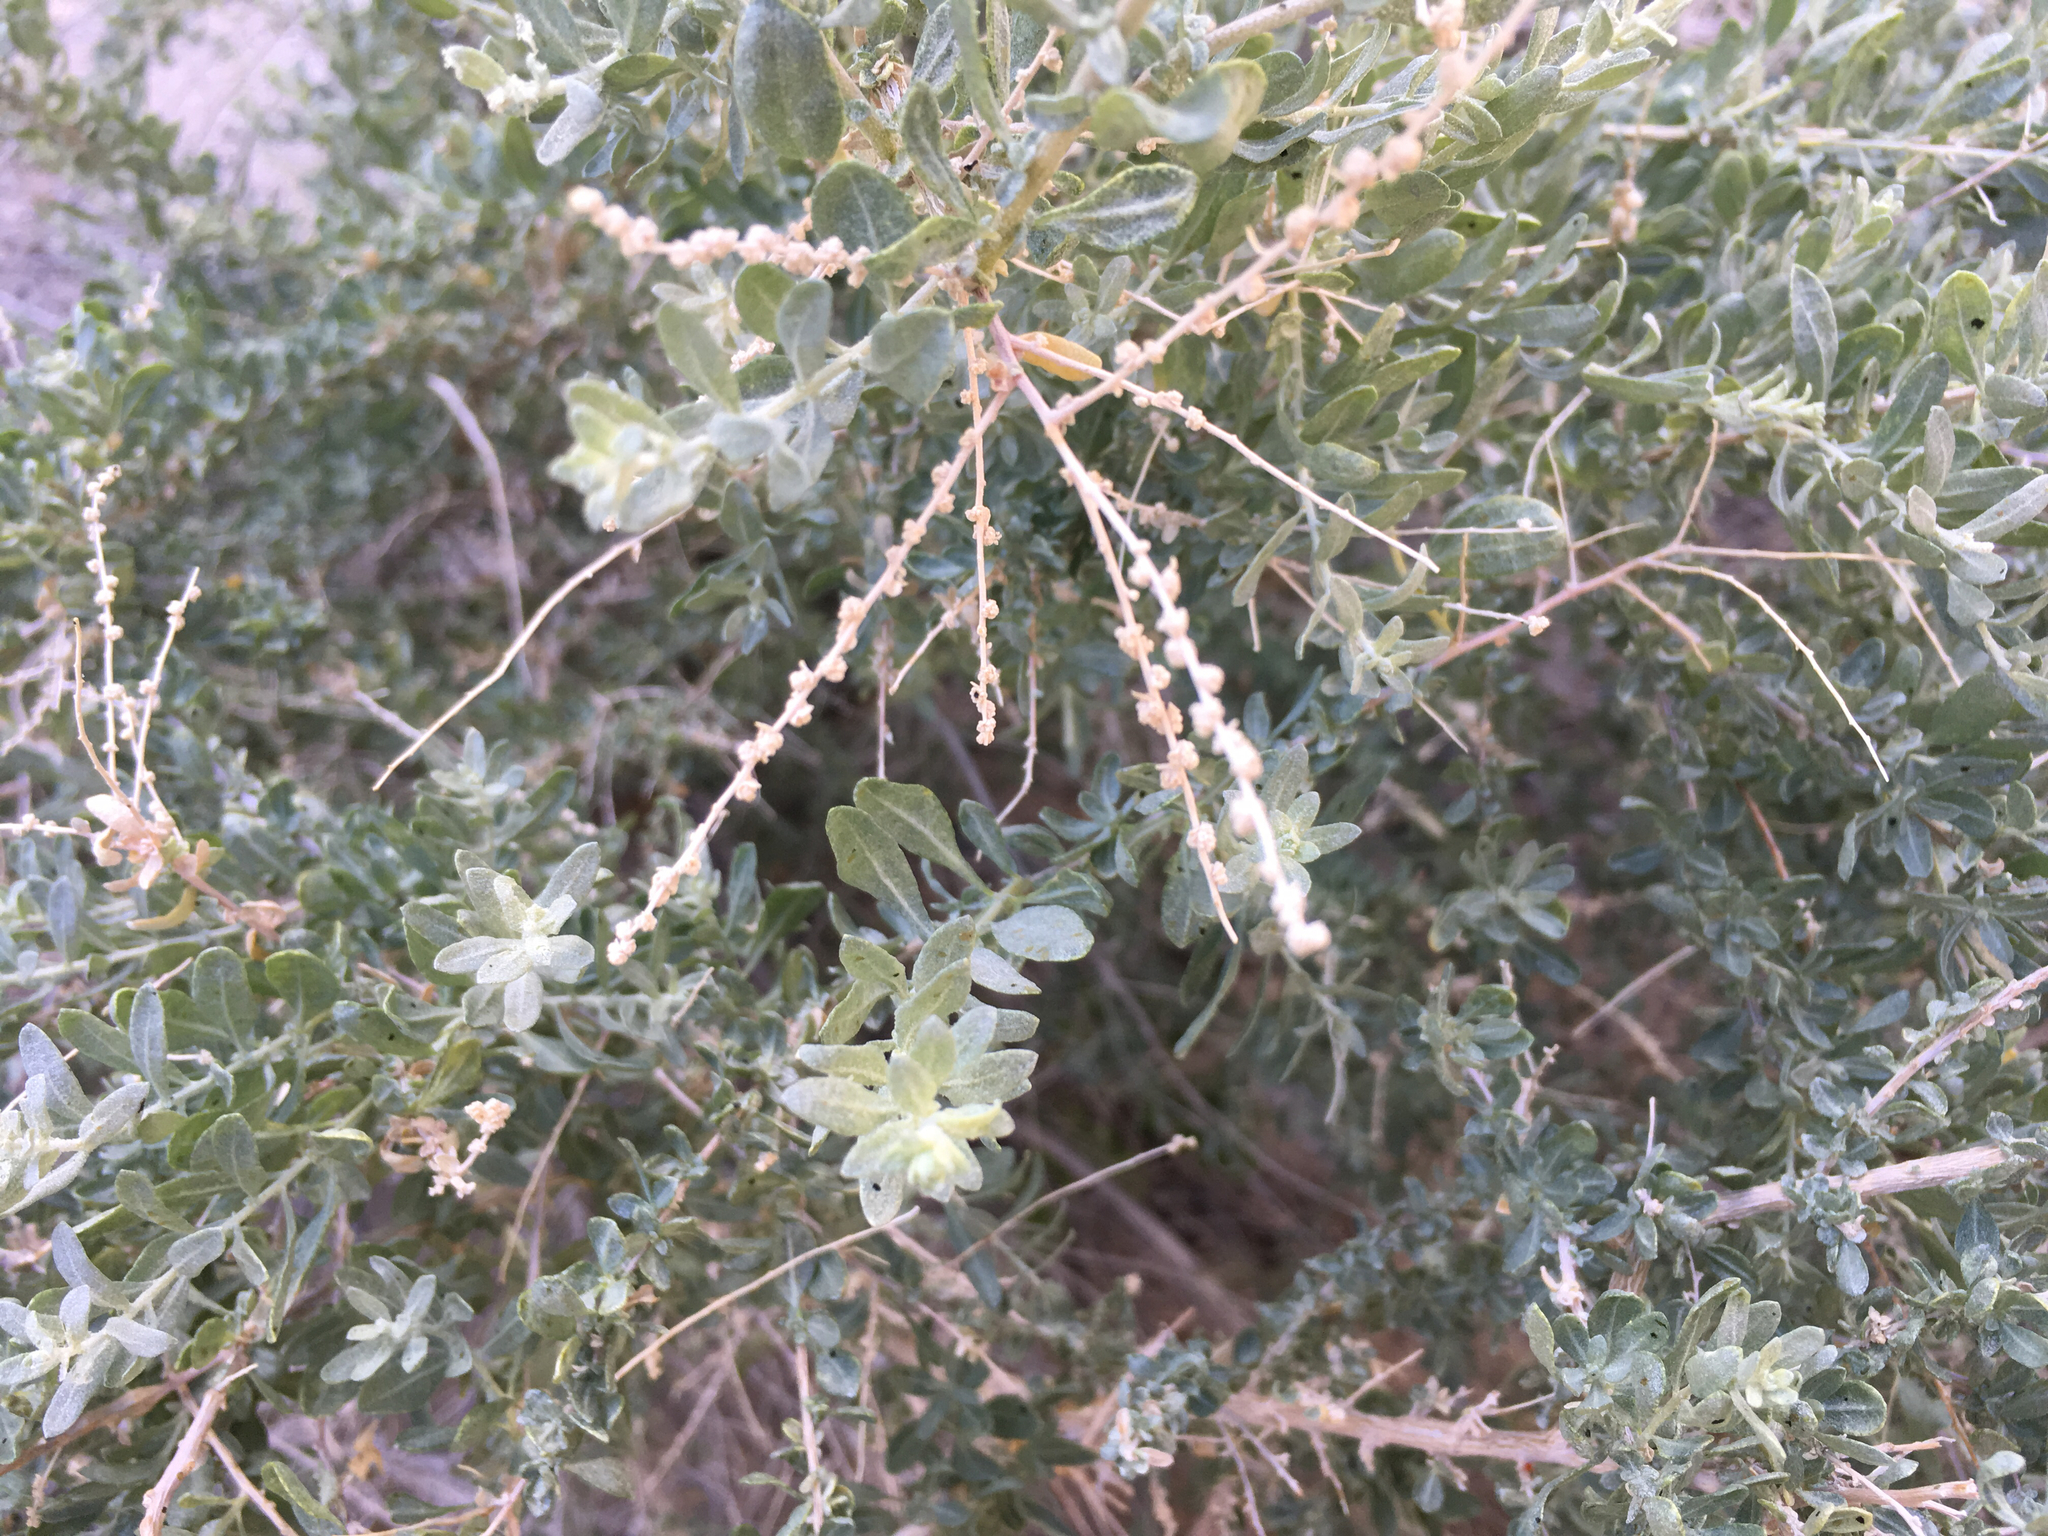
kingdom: Plantae
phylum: Tracheophyta
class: Magnoliopsida
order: Caryophyllales
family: Amaranthaceae
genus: Atriplex
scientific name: Atriplex polycarpa
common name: Desert saltbush
